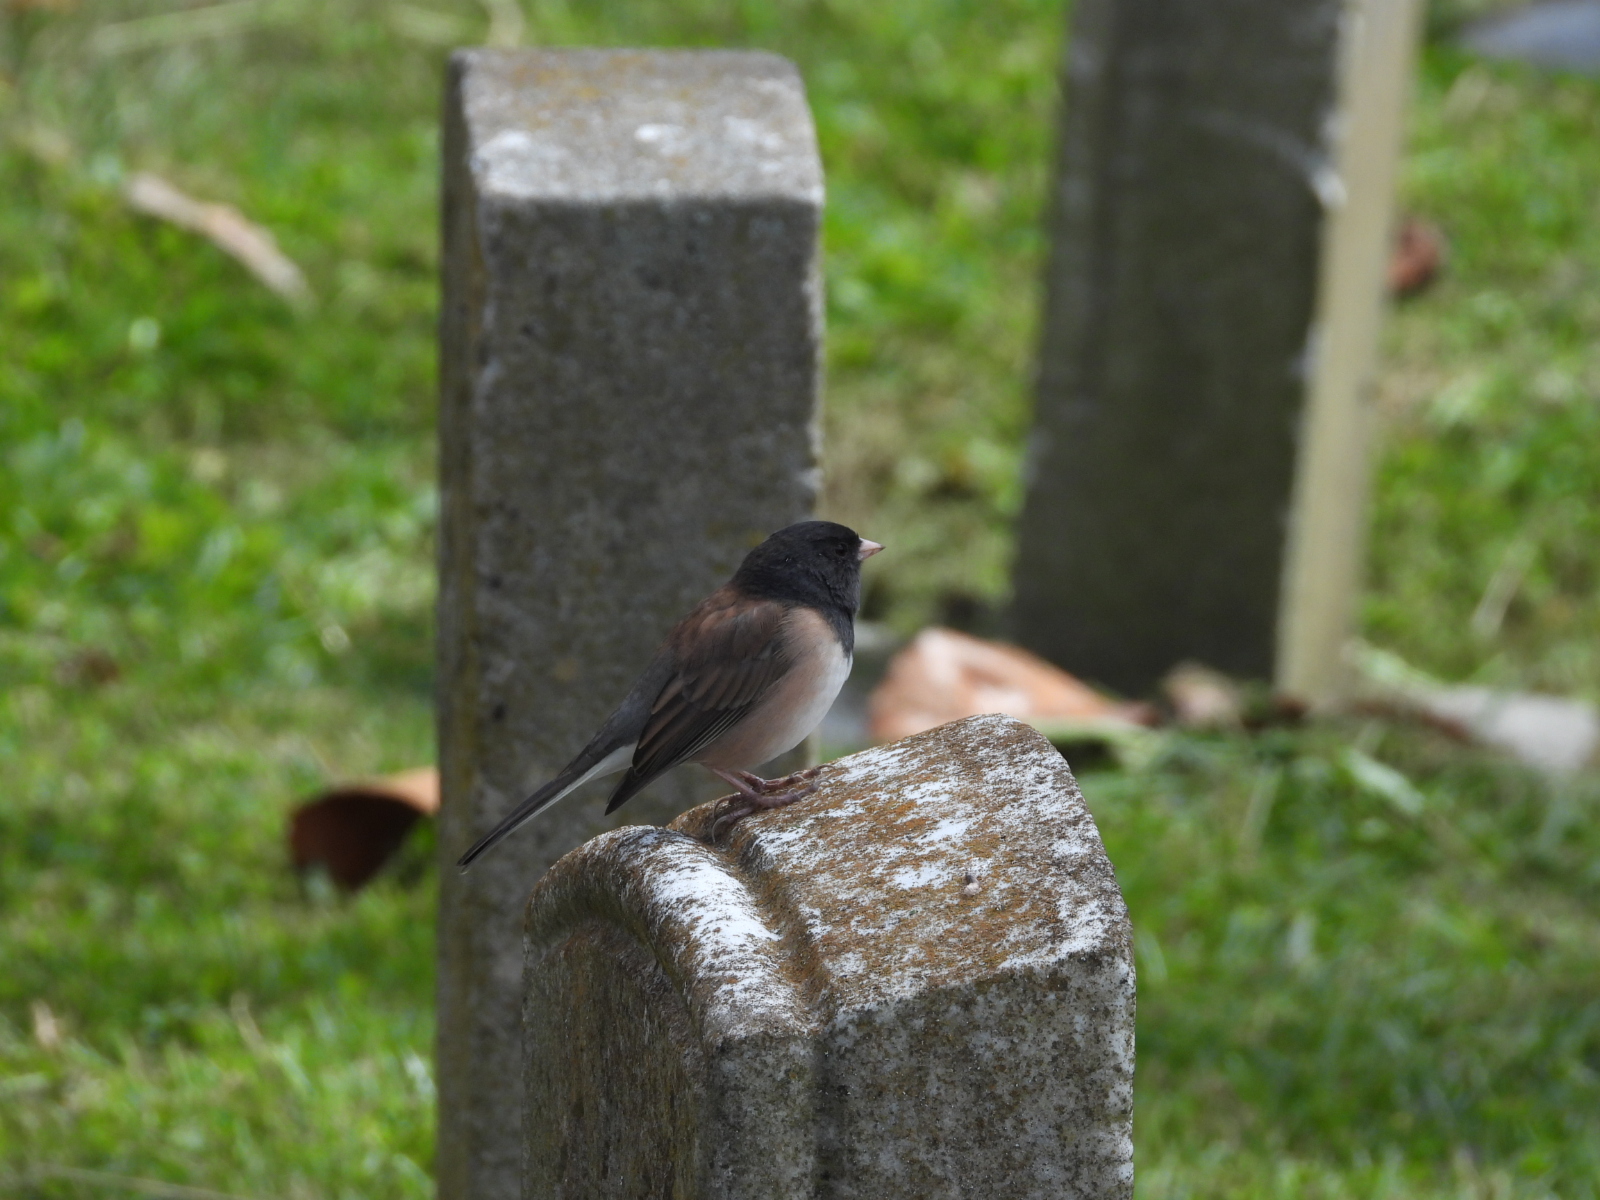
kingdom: Animalia
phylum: Chordata
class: Aves
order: Passeriformes
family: Passerellidae
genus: Junco
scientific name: Junco hyemalis
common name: Dark-eyed junco
